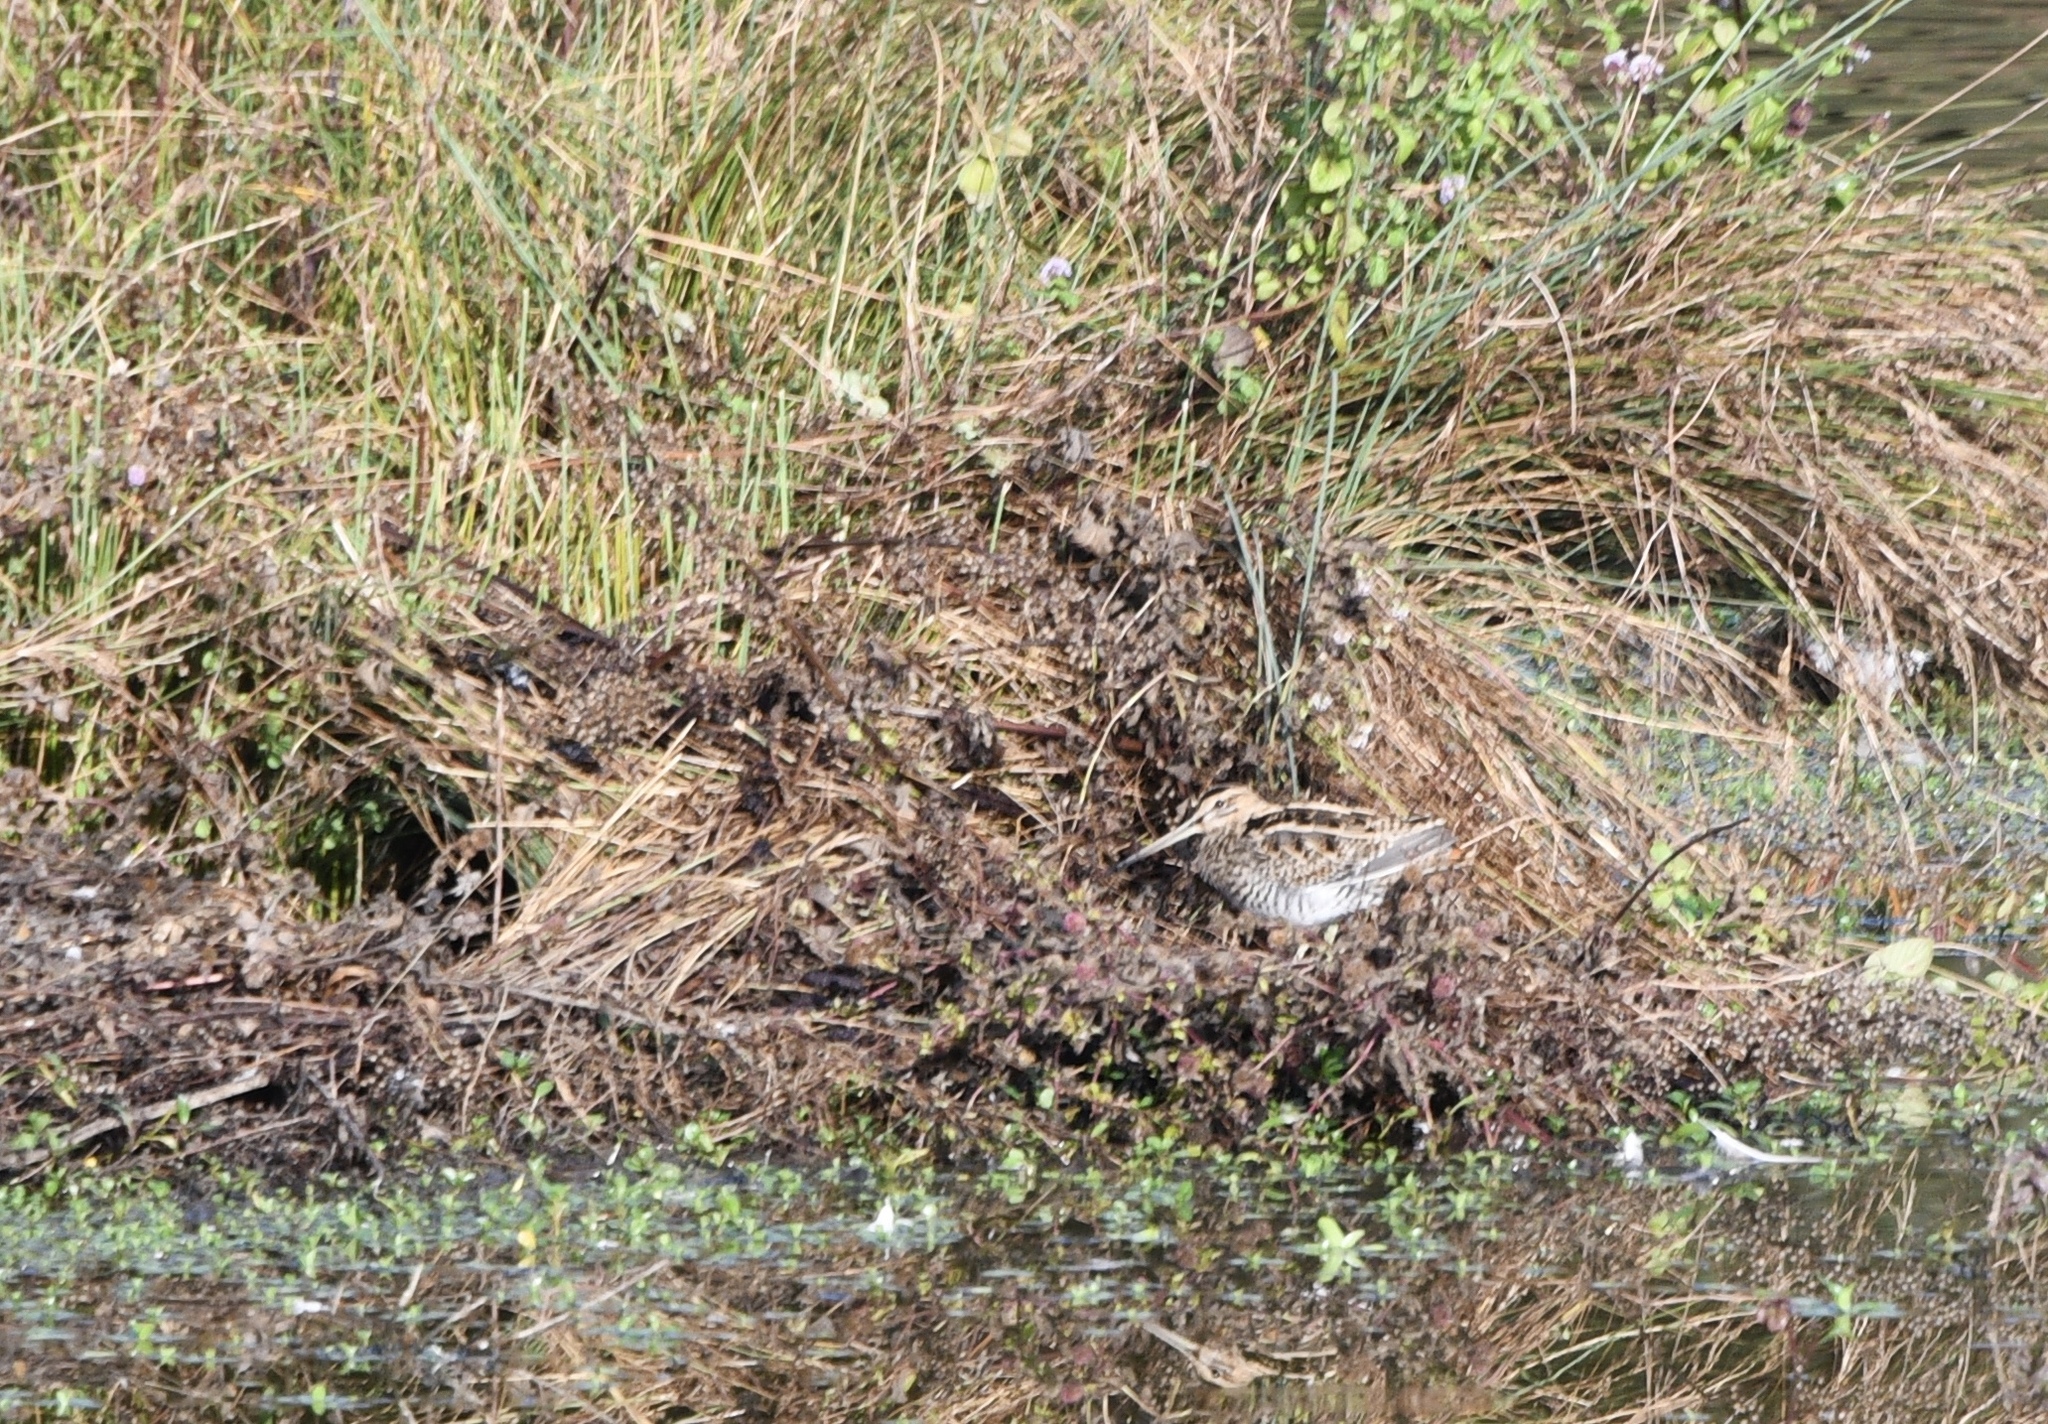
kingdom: Animalia
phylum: Chordata
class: Aves
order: Charadriiformes
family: Scolopacidae
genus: Gallinago
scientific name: Gallinago gallinago
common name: Common snipe
